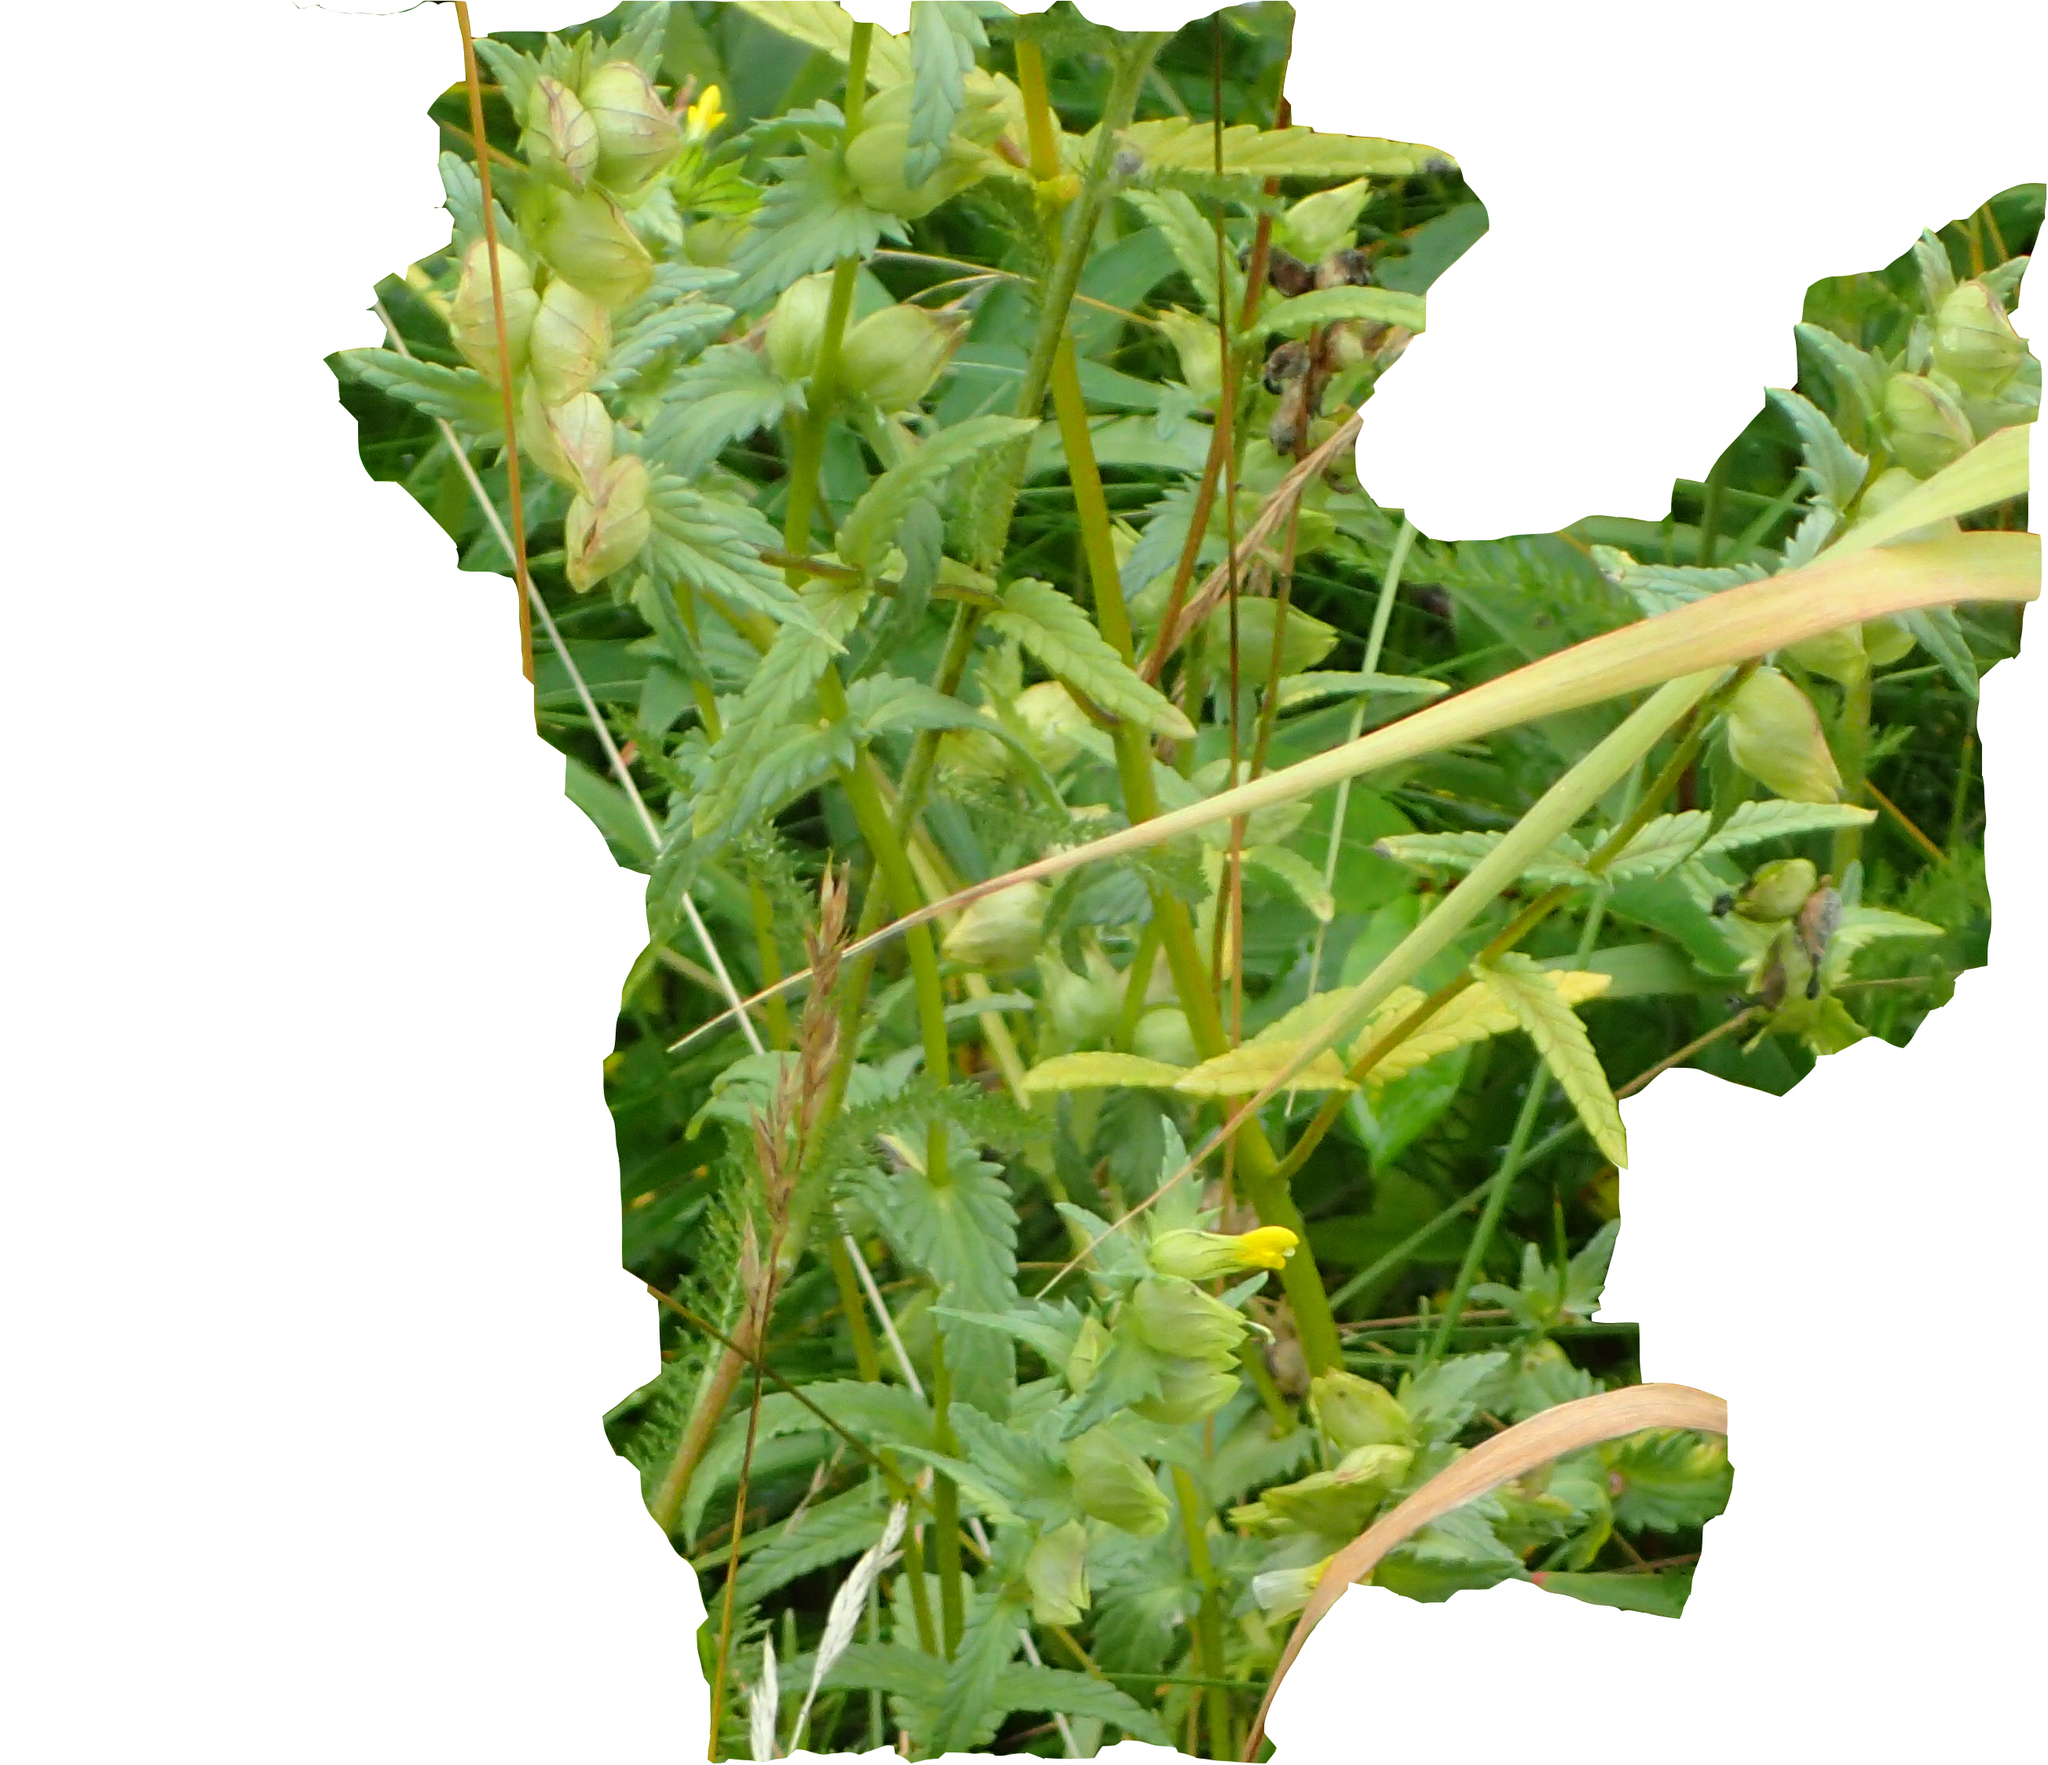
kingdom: Plantae
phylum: Tracheophyta
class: Magnoliopsida
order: Lamiales
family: Orobanchaceae
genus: Rhinanthus
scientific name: Rhinanthus minor
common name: Yellow-rattle
